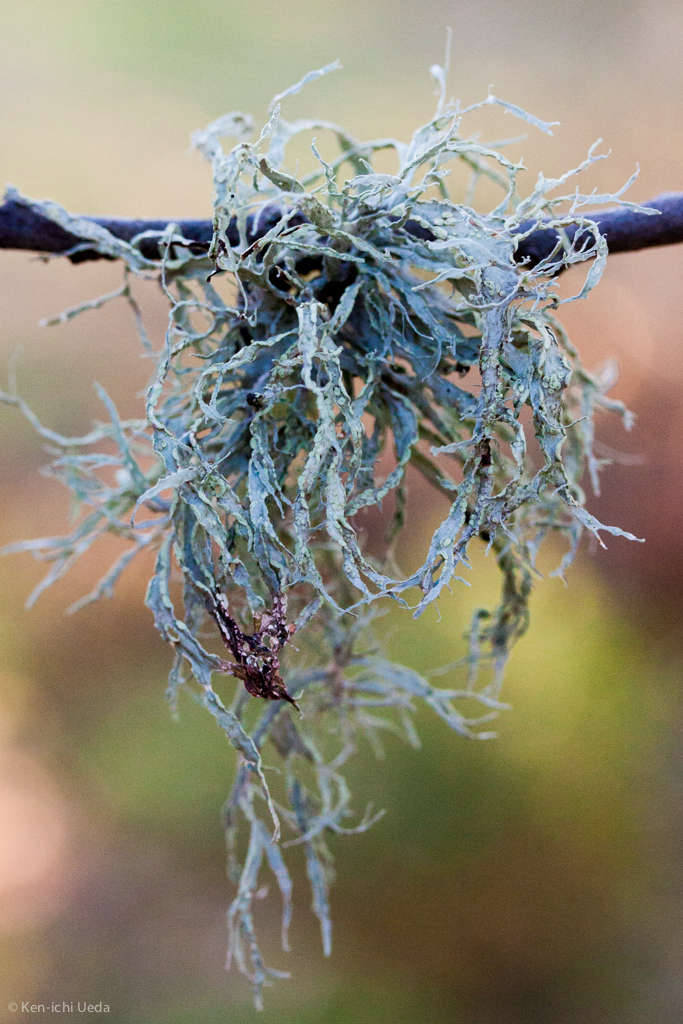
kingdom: Fungi
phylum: Ascomycota
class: Lecanoromycetes
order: Lecanorales
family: Ramalinaceae
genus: Ramalina
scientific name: Ramalina subleptocarpha
